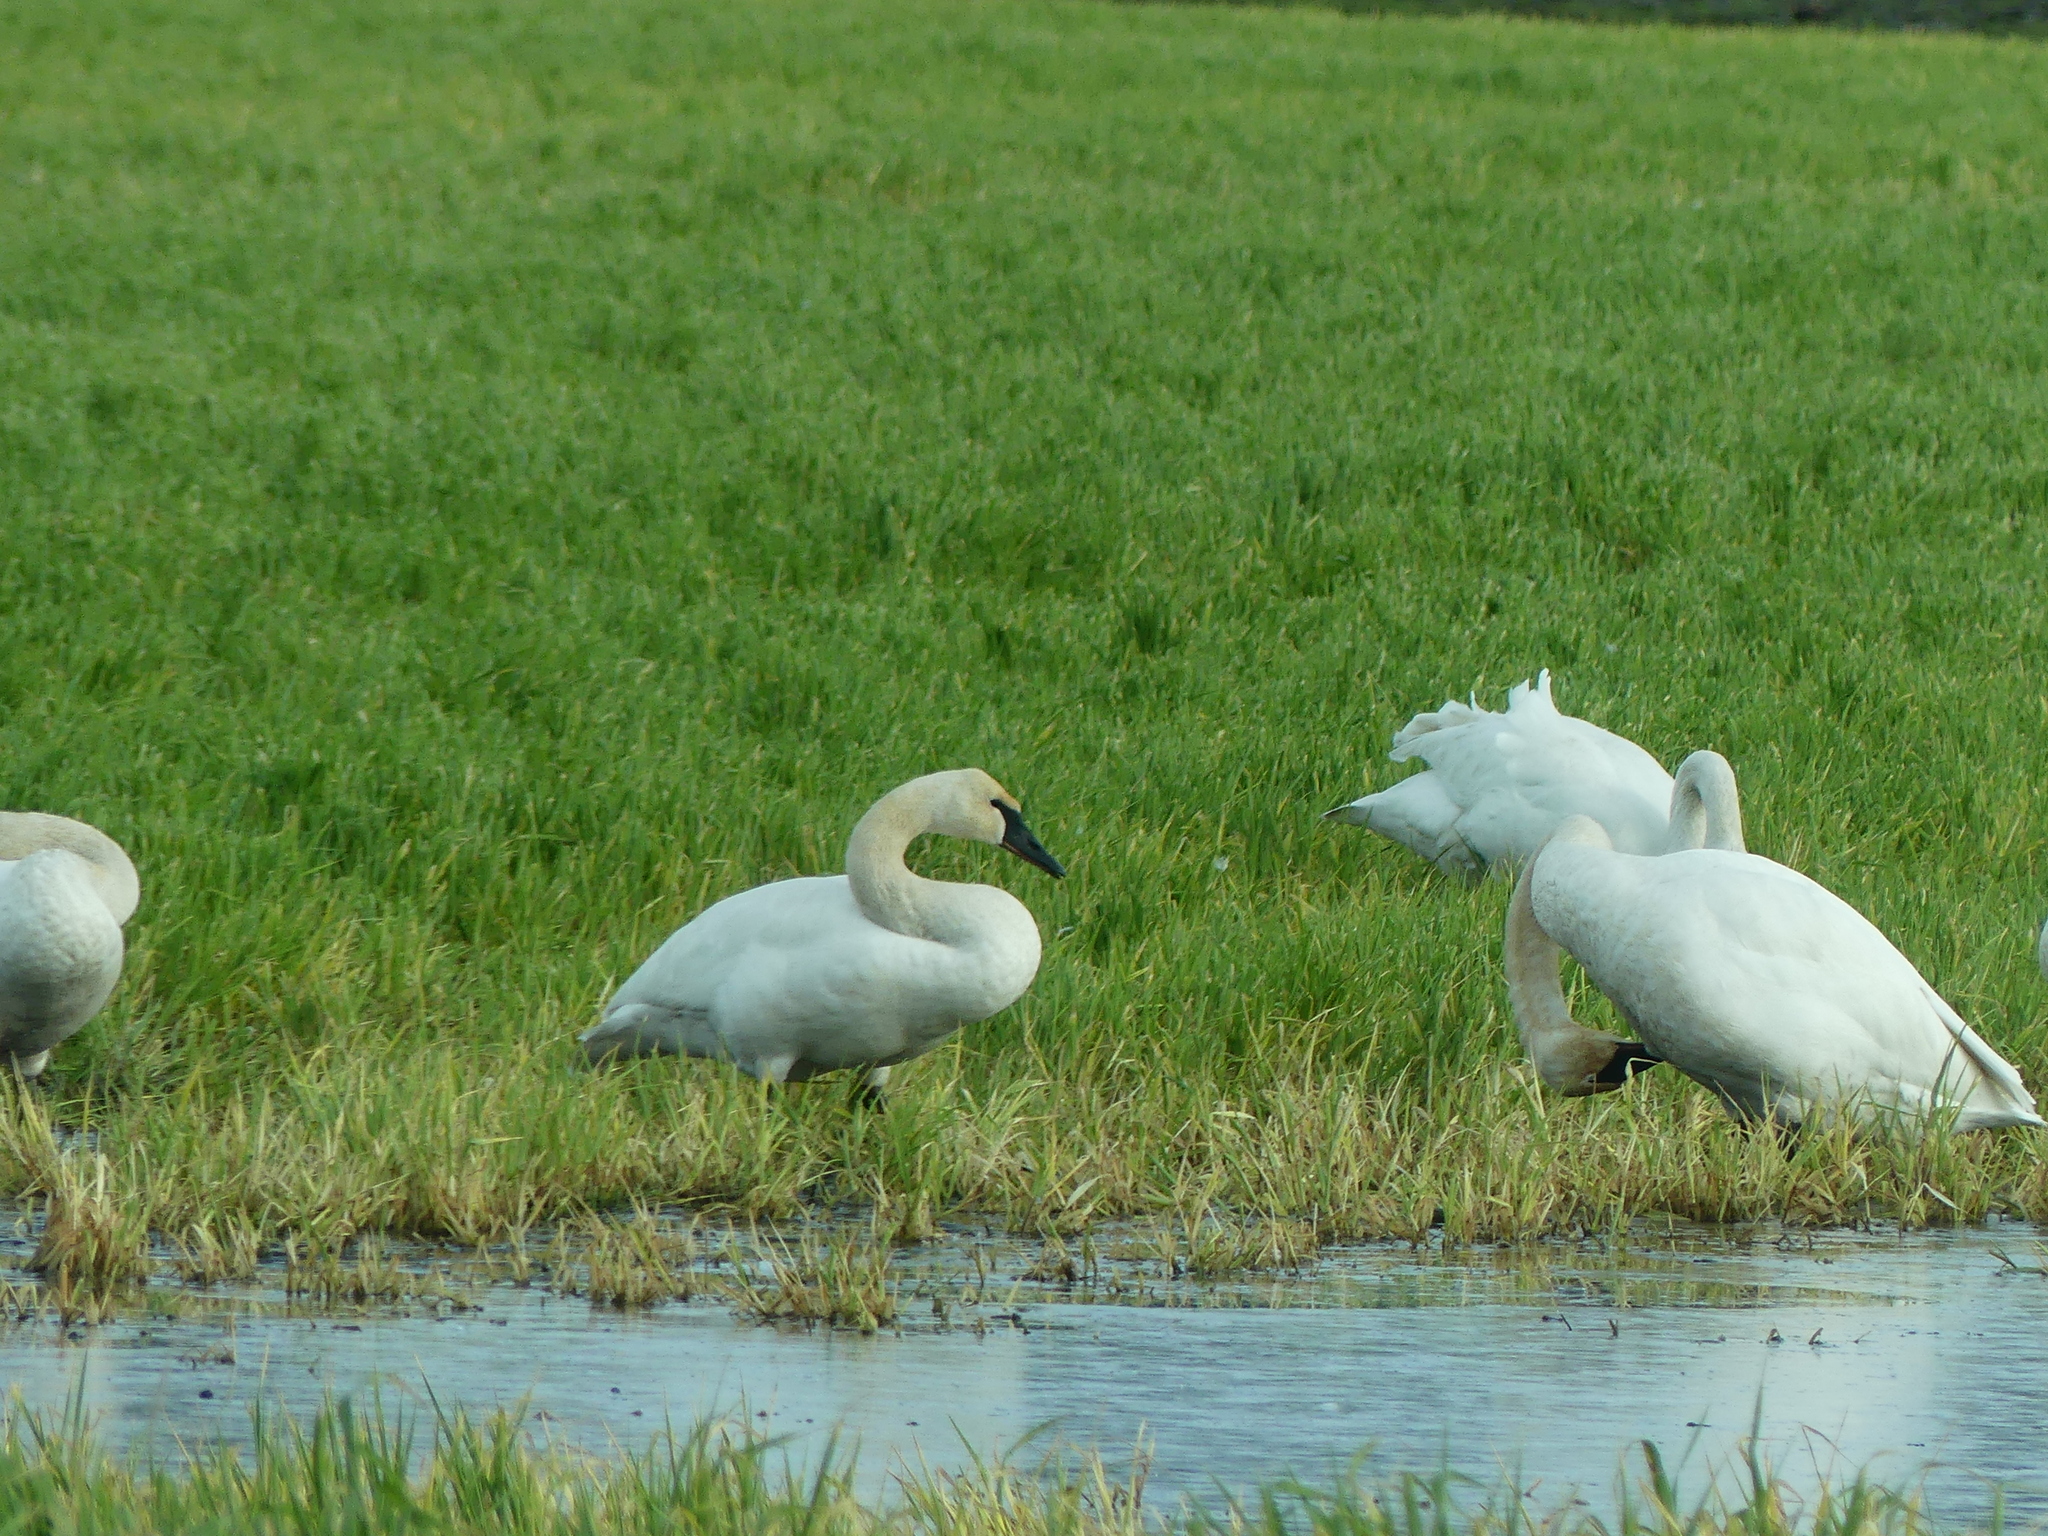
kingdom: Animalia
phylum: Chordata
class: Aves
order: Anseriformes
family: Anatidae
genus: Cygnus
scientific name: Cygnus buccinator
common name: Trumpeter swan
